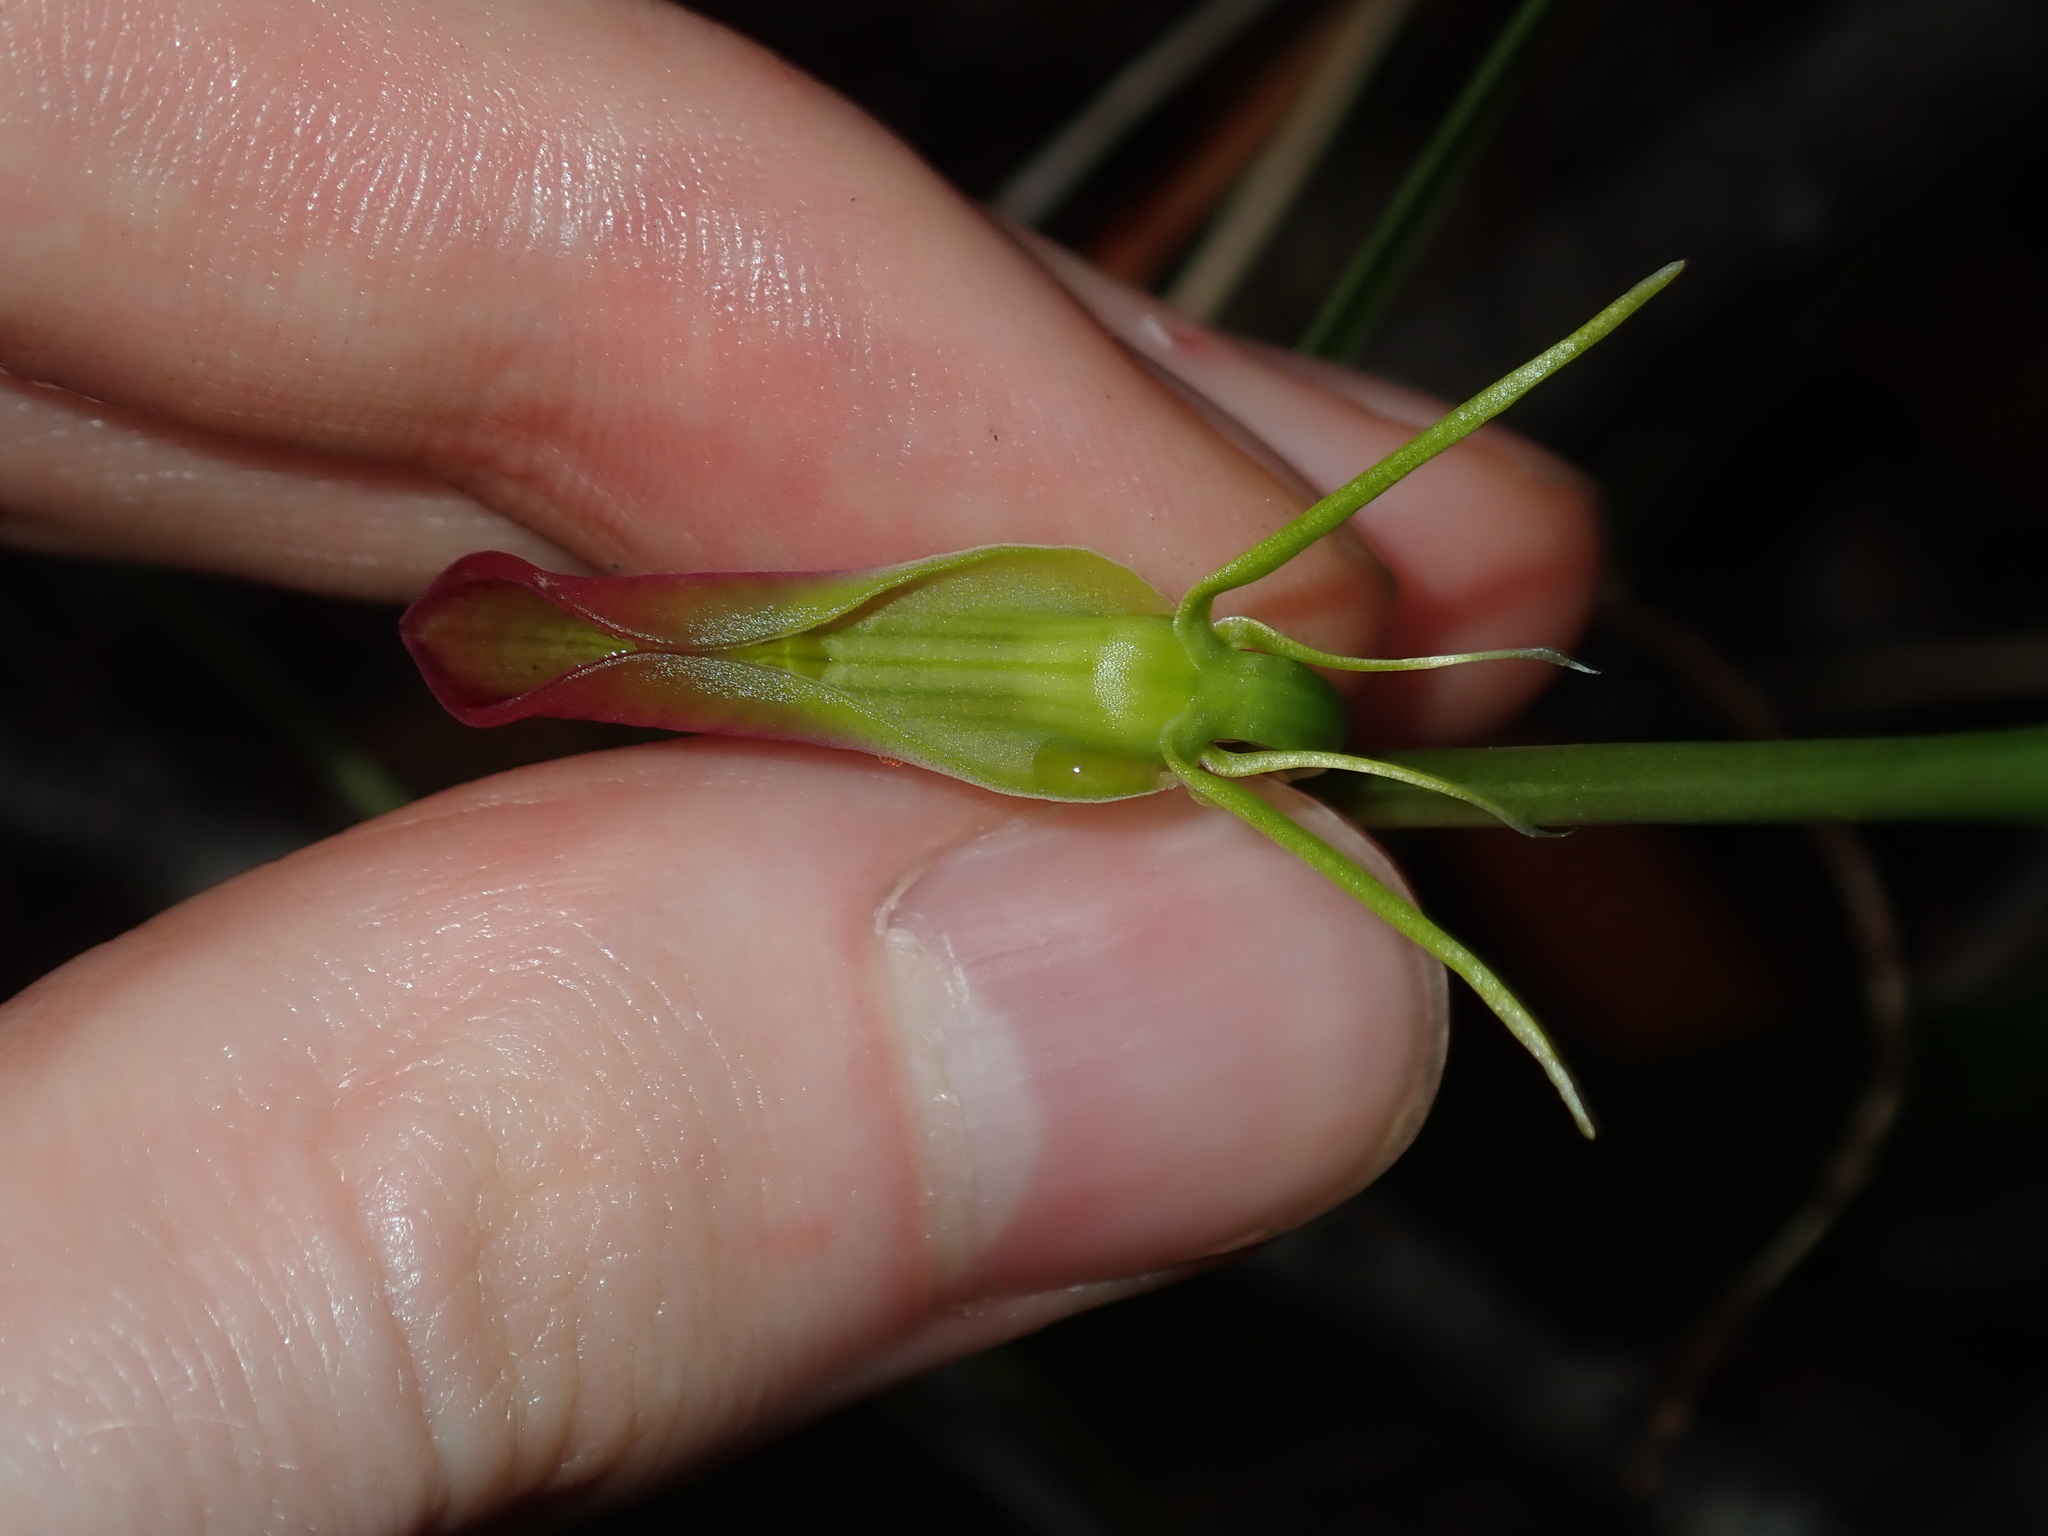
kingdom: Plantae
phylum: Tracheophyta
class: Liliopsida
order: Asparagales
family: Orchidaceae
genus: Cryptostylis
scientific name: Cryptostylis subulata
